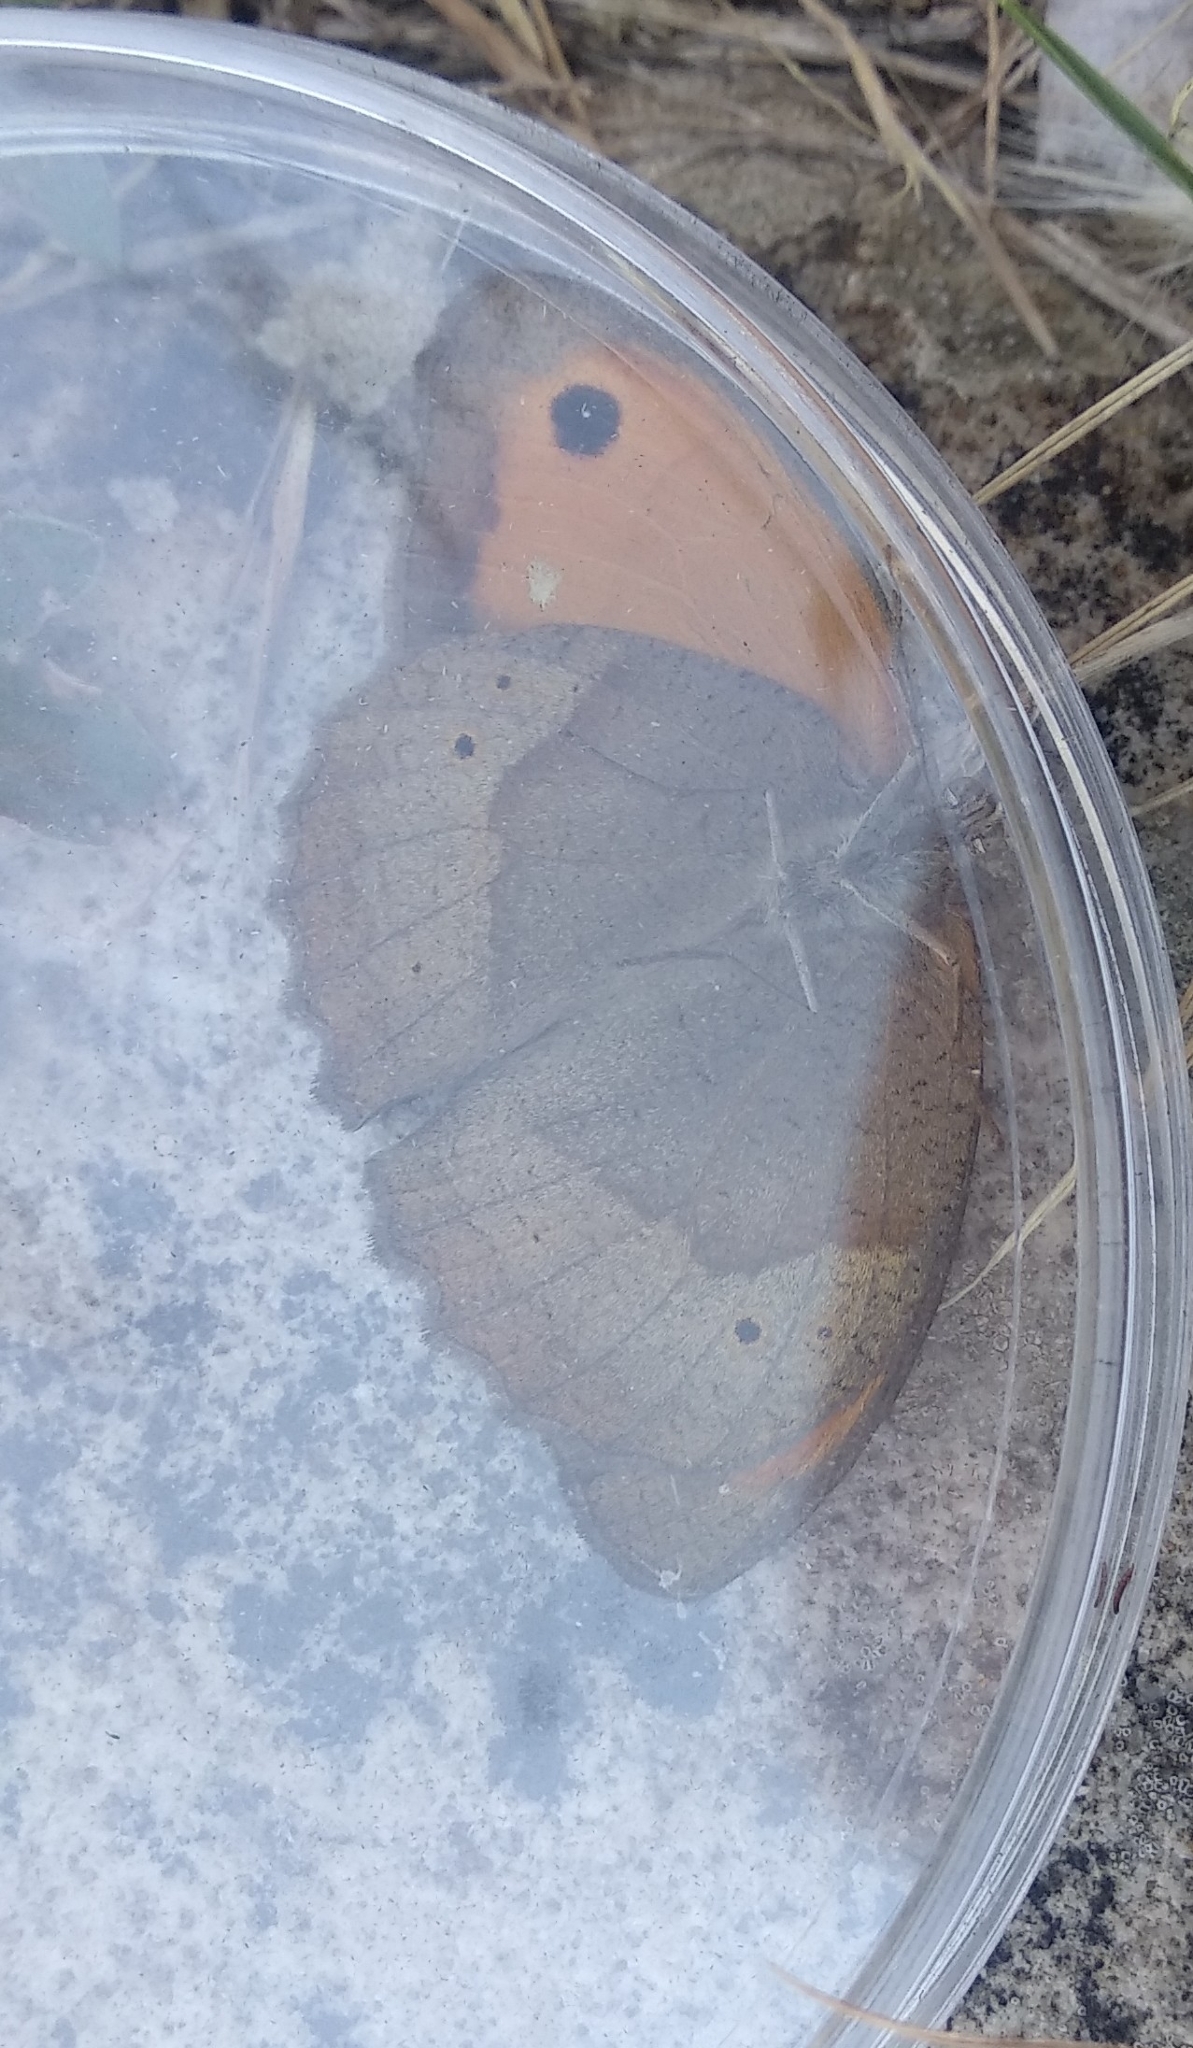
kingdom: Animalia
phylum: Arthropoda
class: Insecta
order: Lepidoptera
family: Nymphalidae
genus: Maniola
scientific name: Maniola jurtina
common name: Meadow brown
